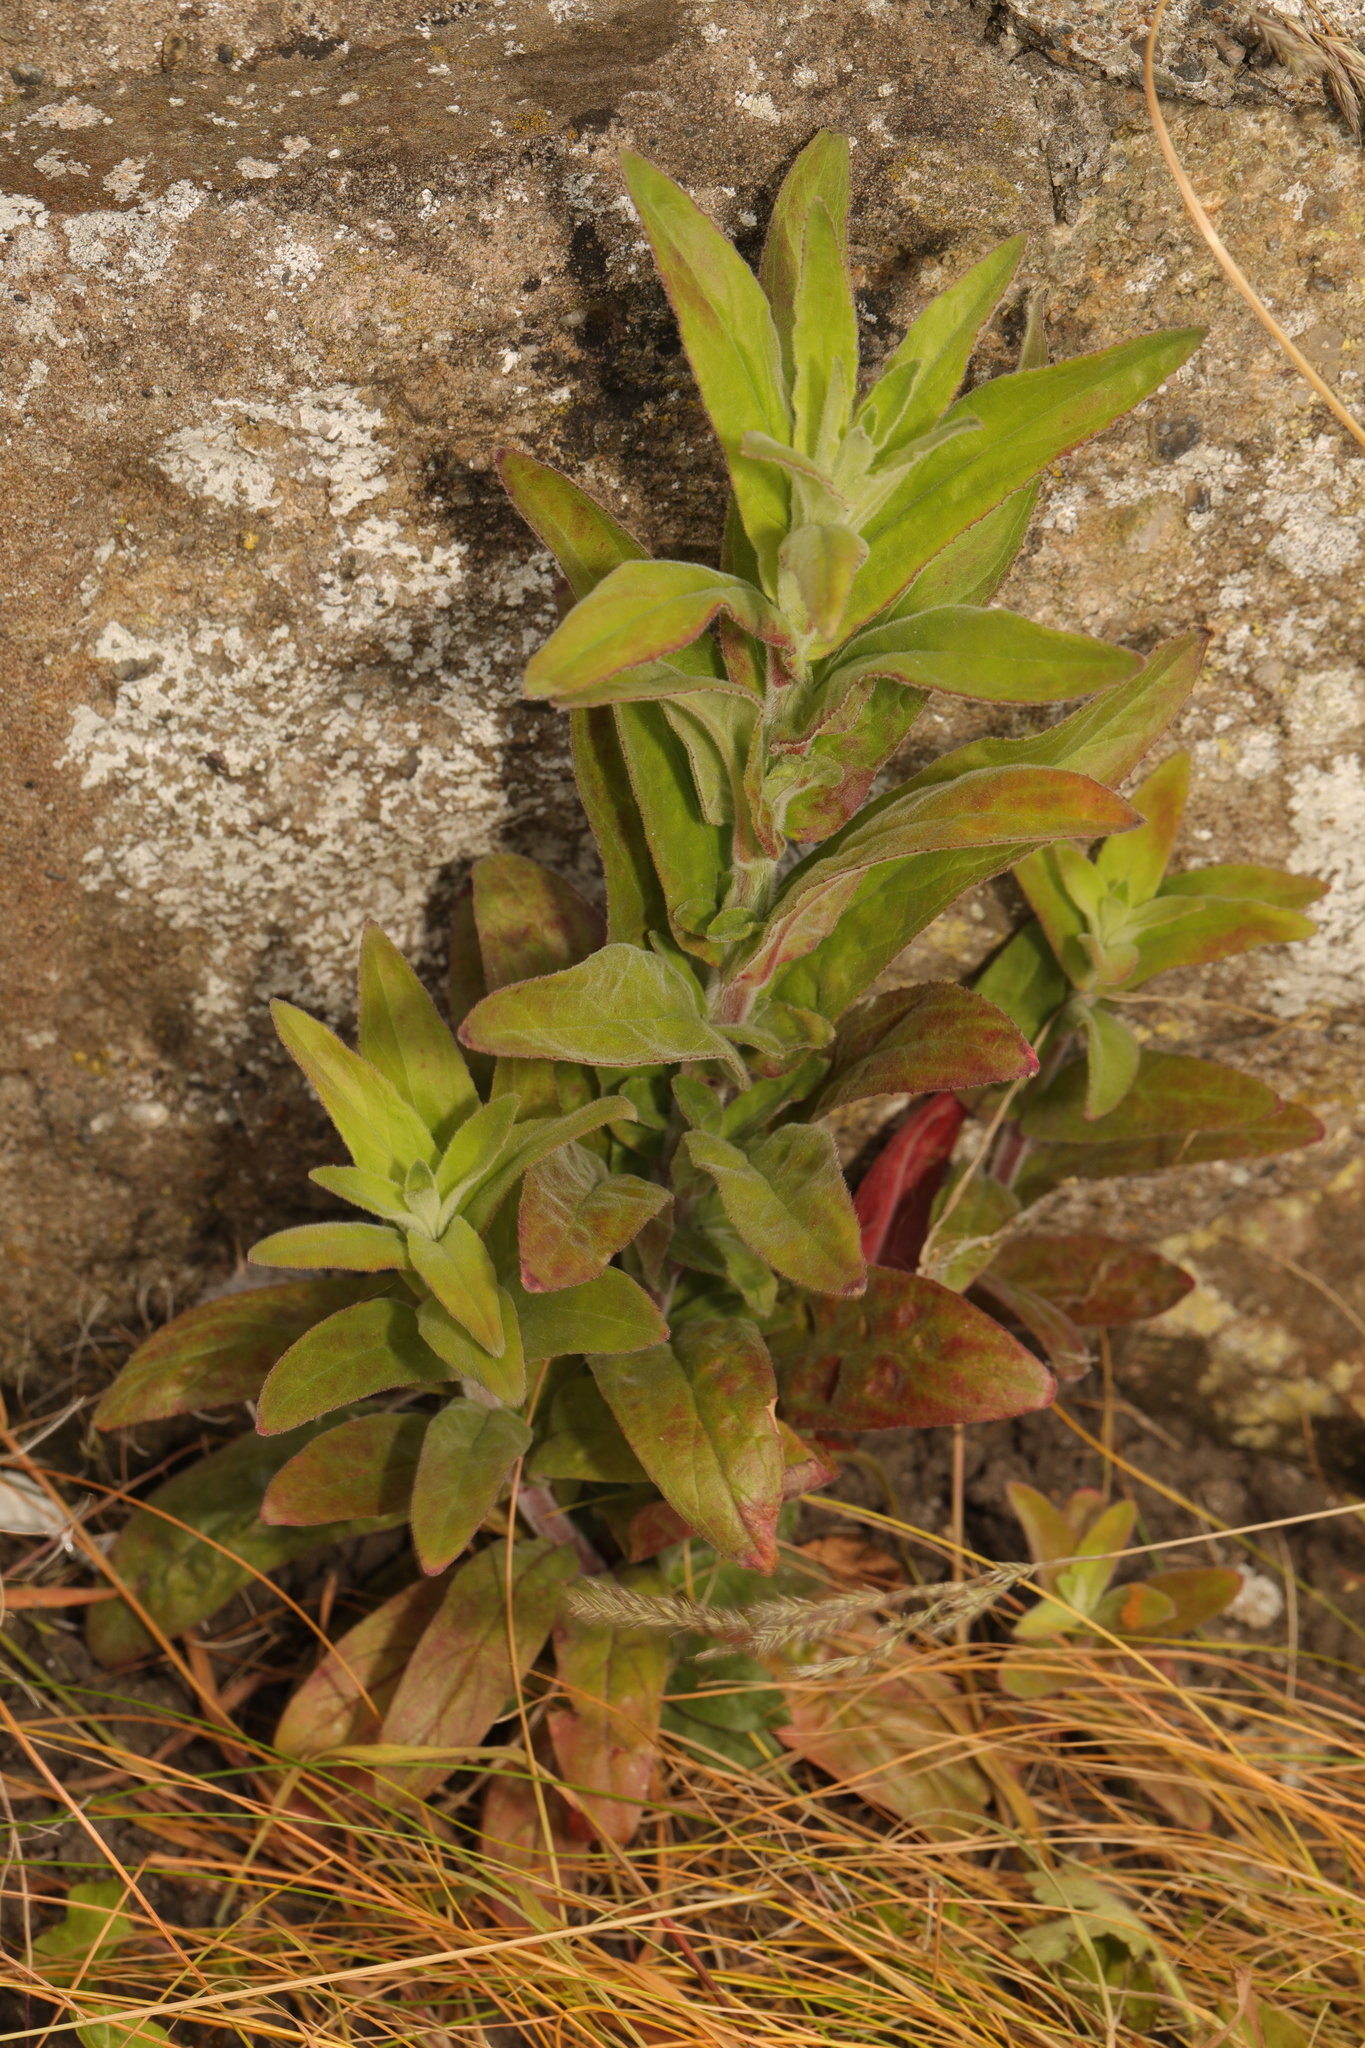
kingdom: Plantae
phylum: Tracheophyta
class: Magnoliopsida
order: Myrtales
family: Onagraceae
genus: Epilobium
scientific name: Epilobium parviflorum
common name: Hoary willowherb
